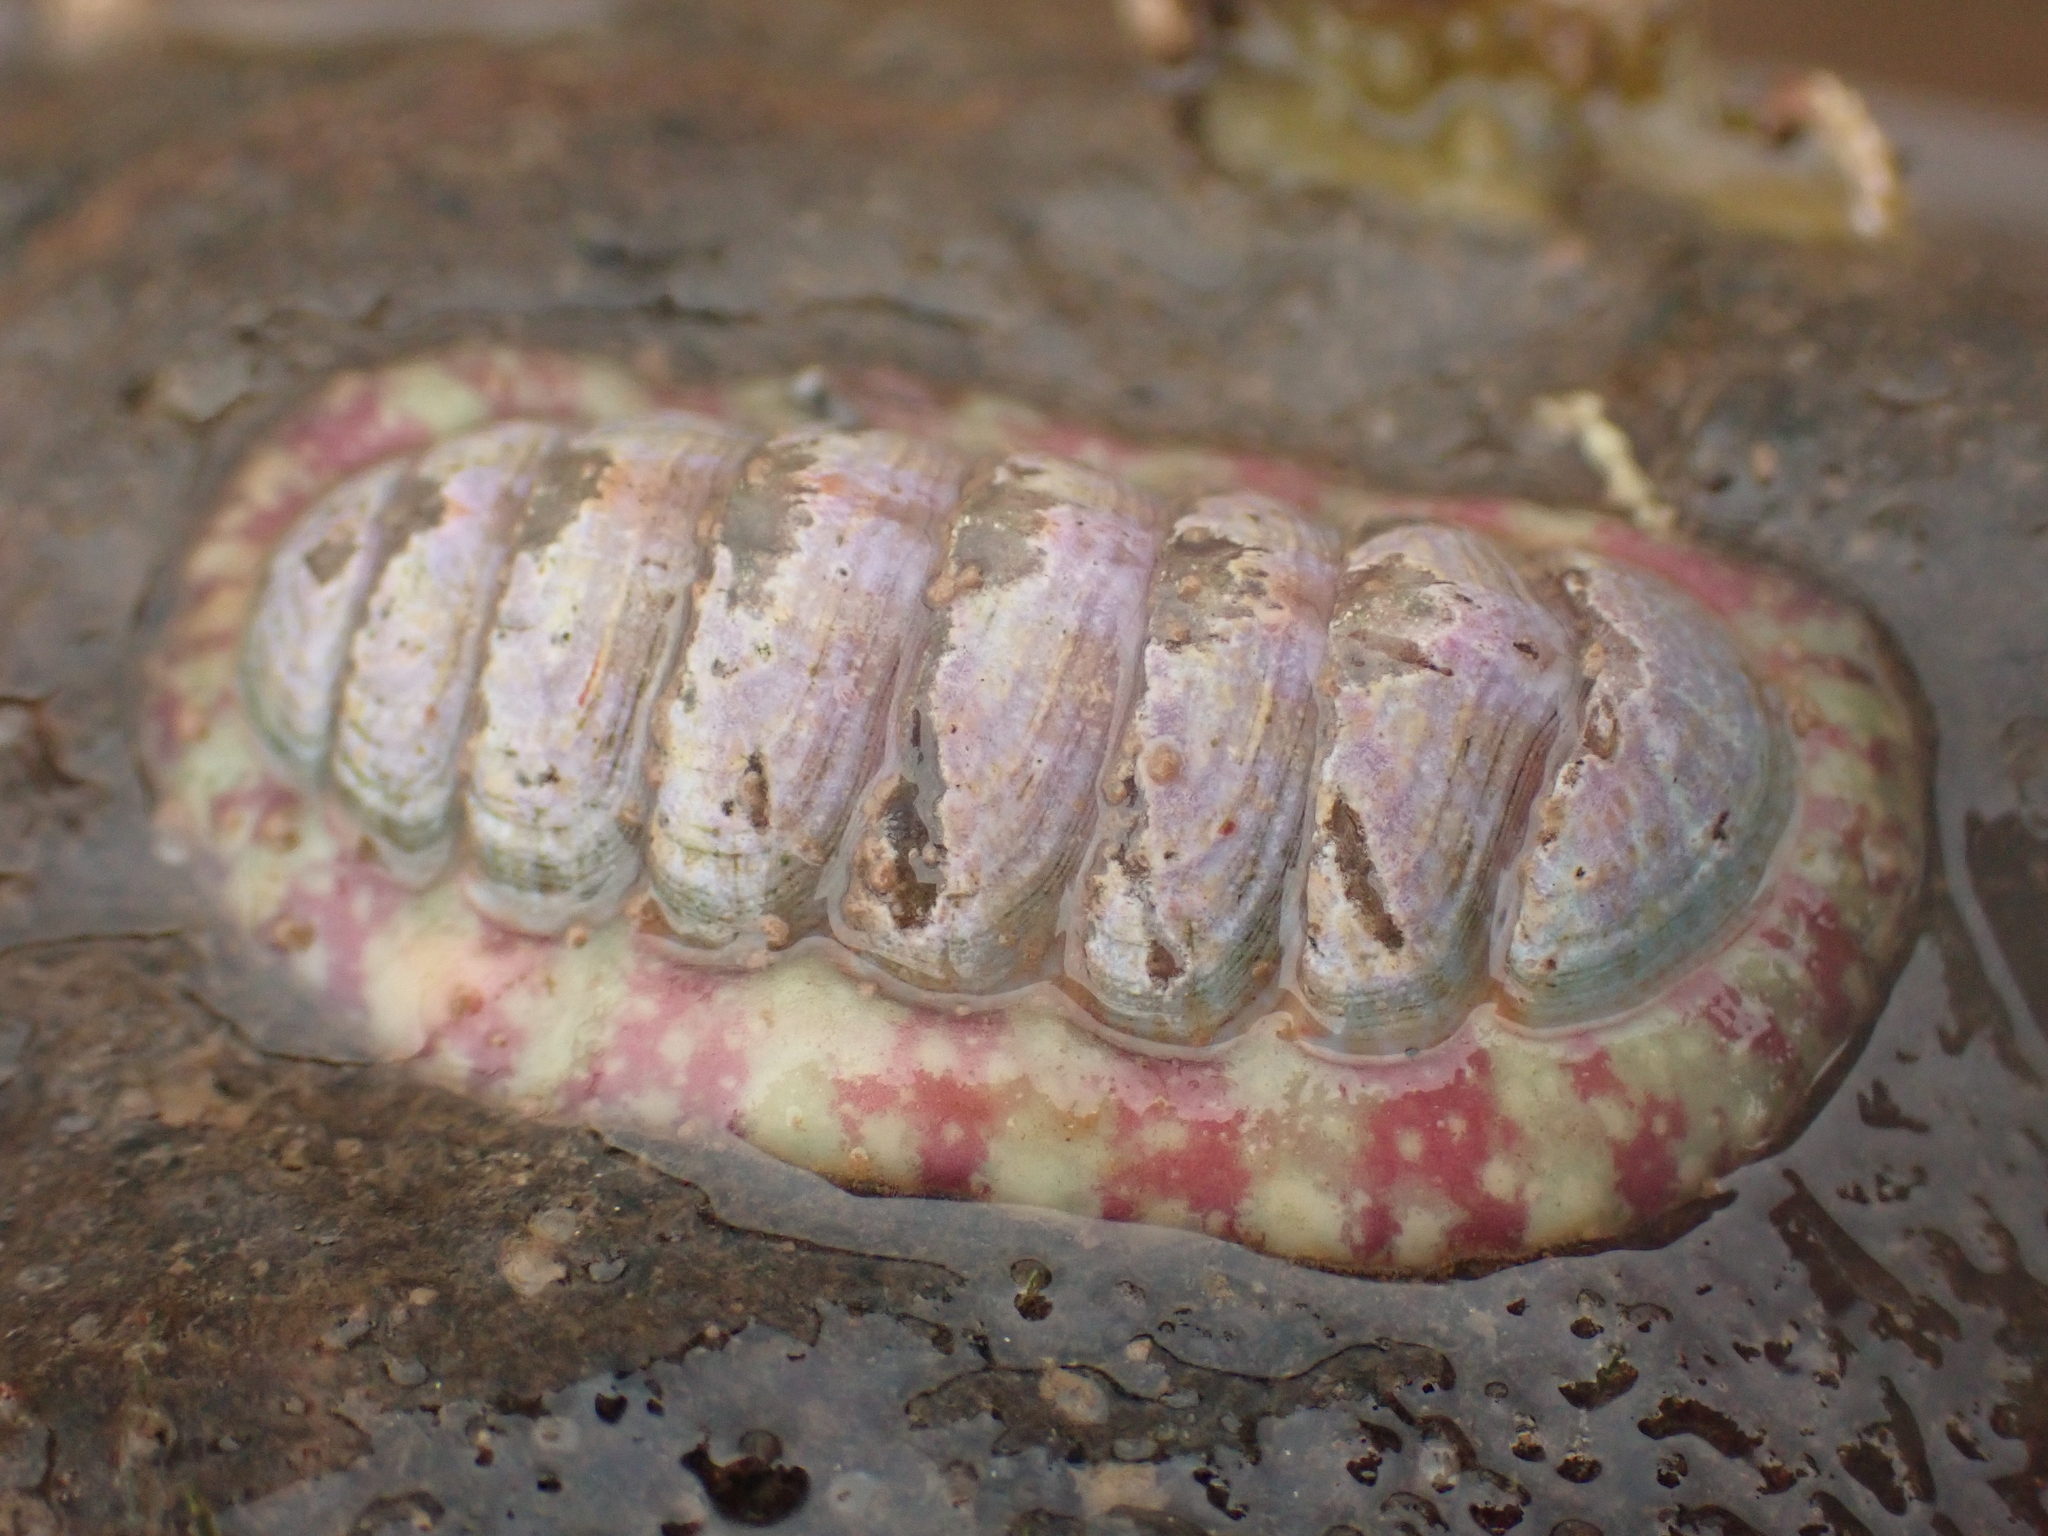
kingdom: Animalia
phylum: Mollusca
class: Polyplacophora
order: Chitonida
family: Tonicellidae
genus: Tonicella
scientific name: Tonicella marmorea
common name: Lined red chiton
